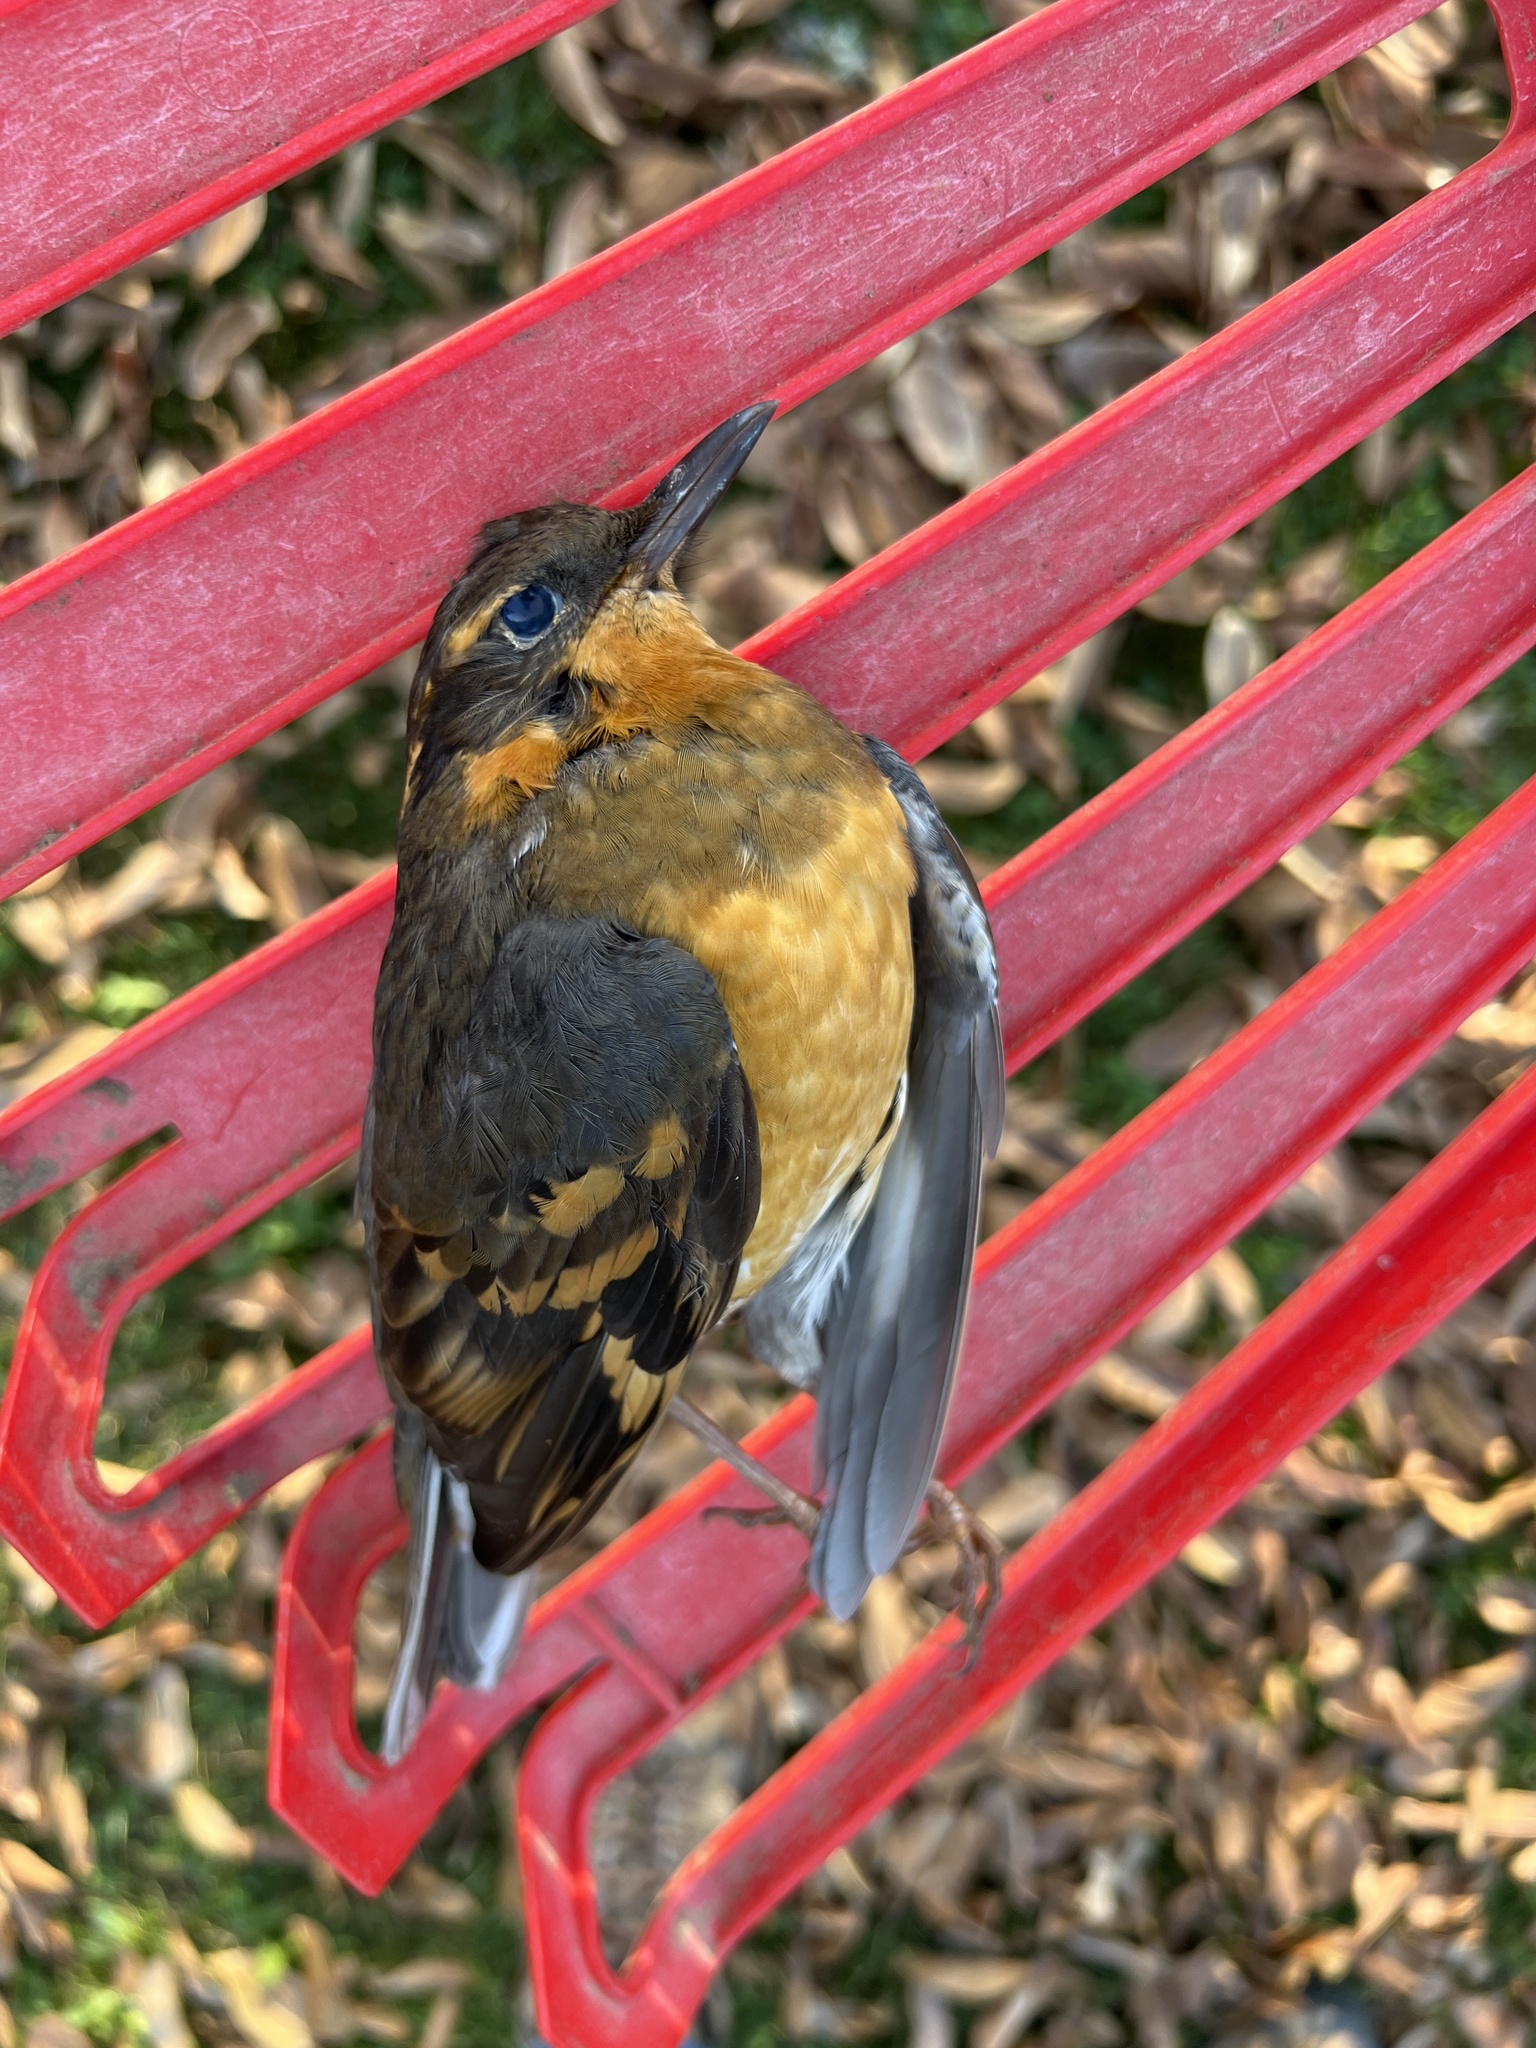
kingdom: Animalia
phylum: Chordata
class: Aves
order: Passeriformes
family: Turdidae
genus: Ixoreus
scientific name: Ixoreus naevius
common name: Varied thrush
